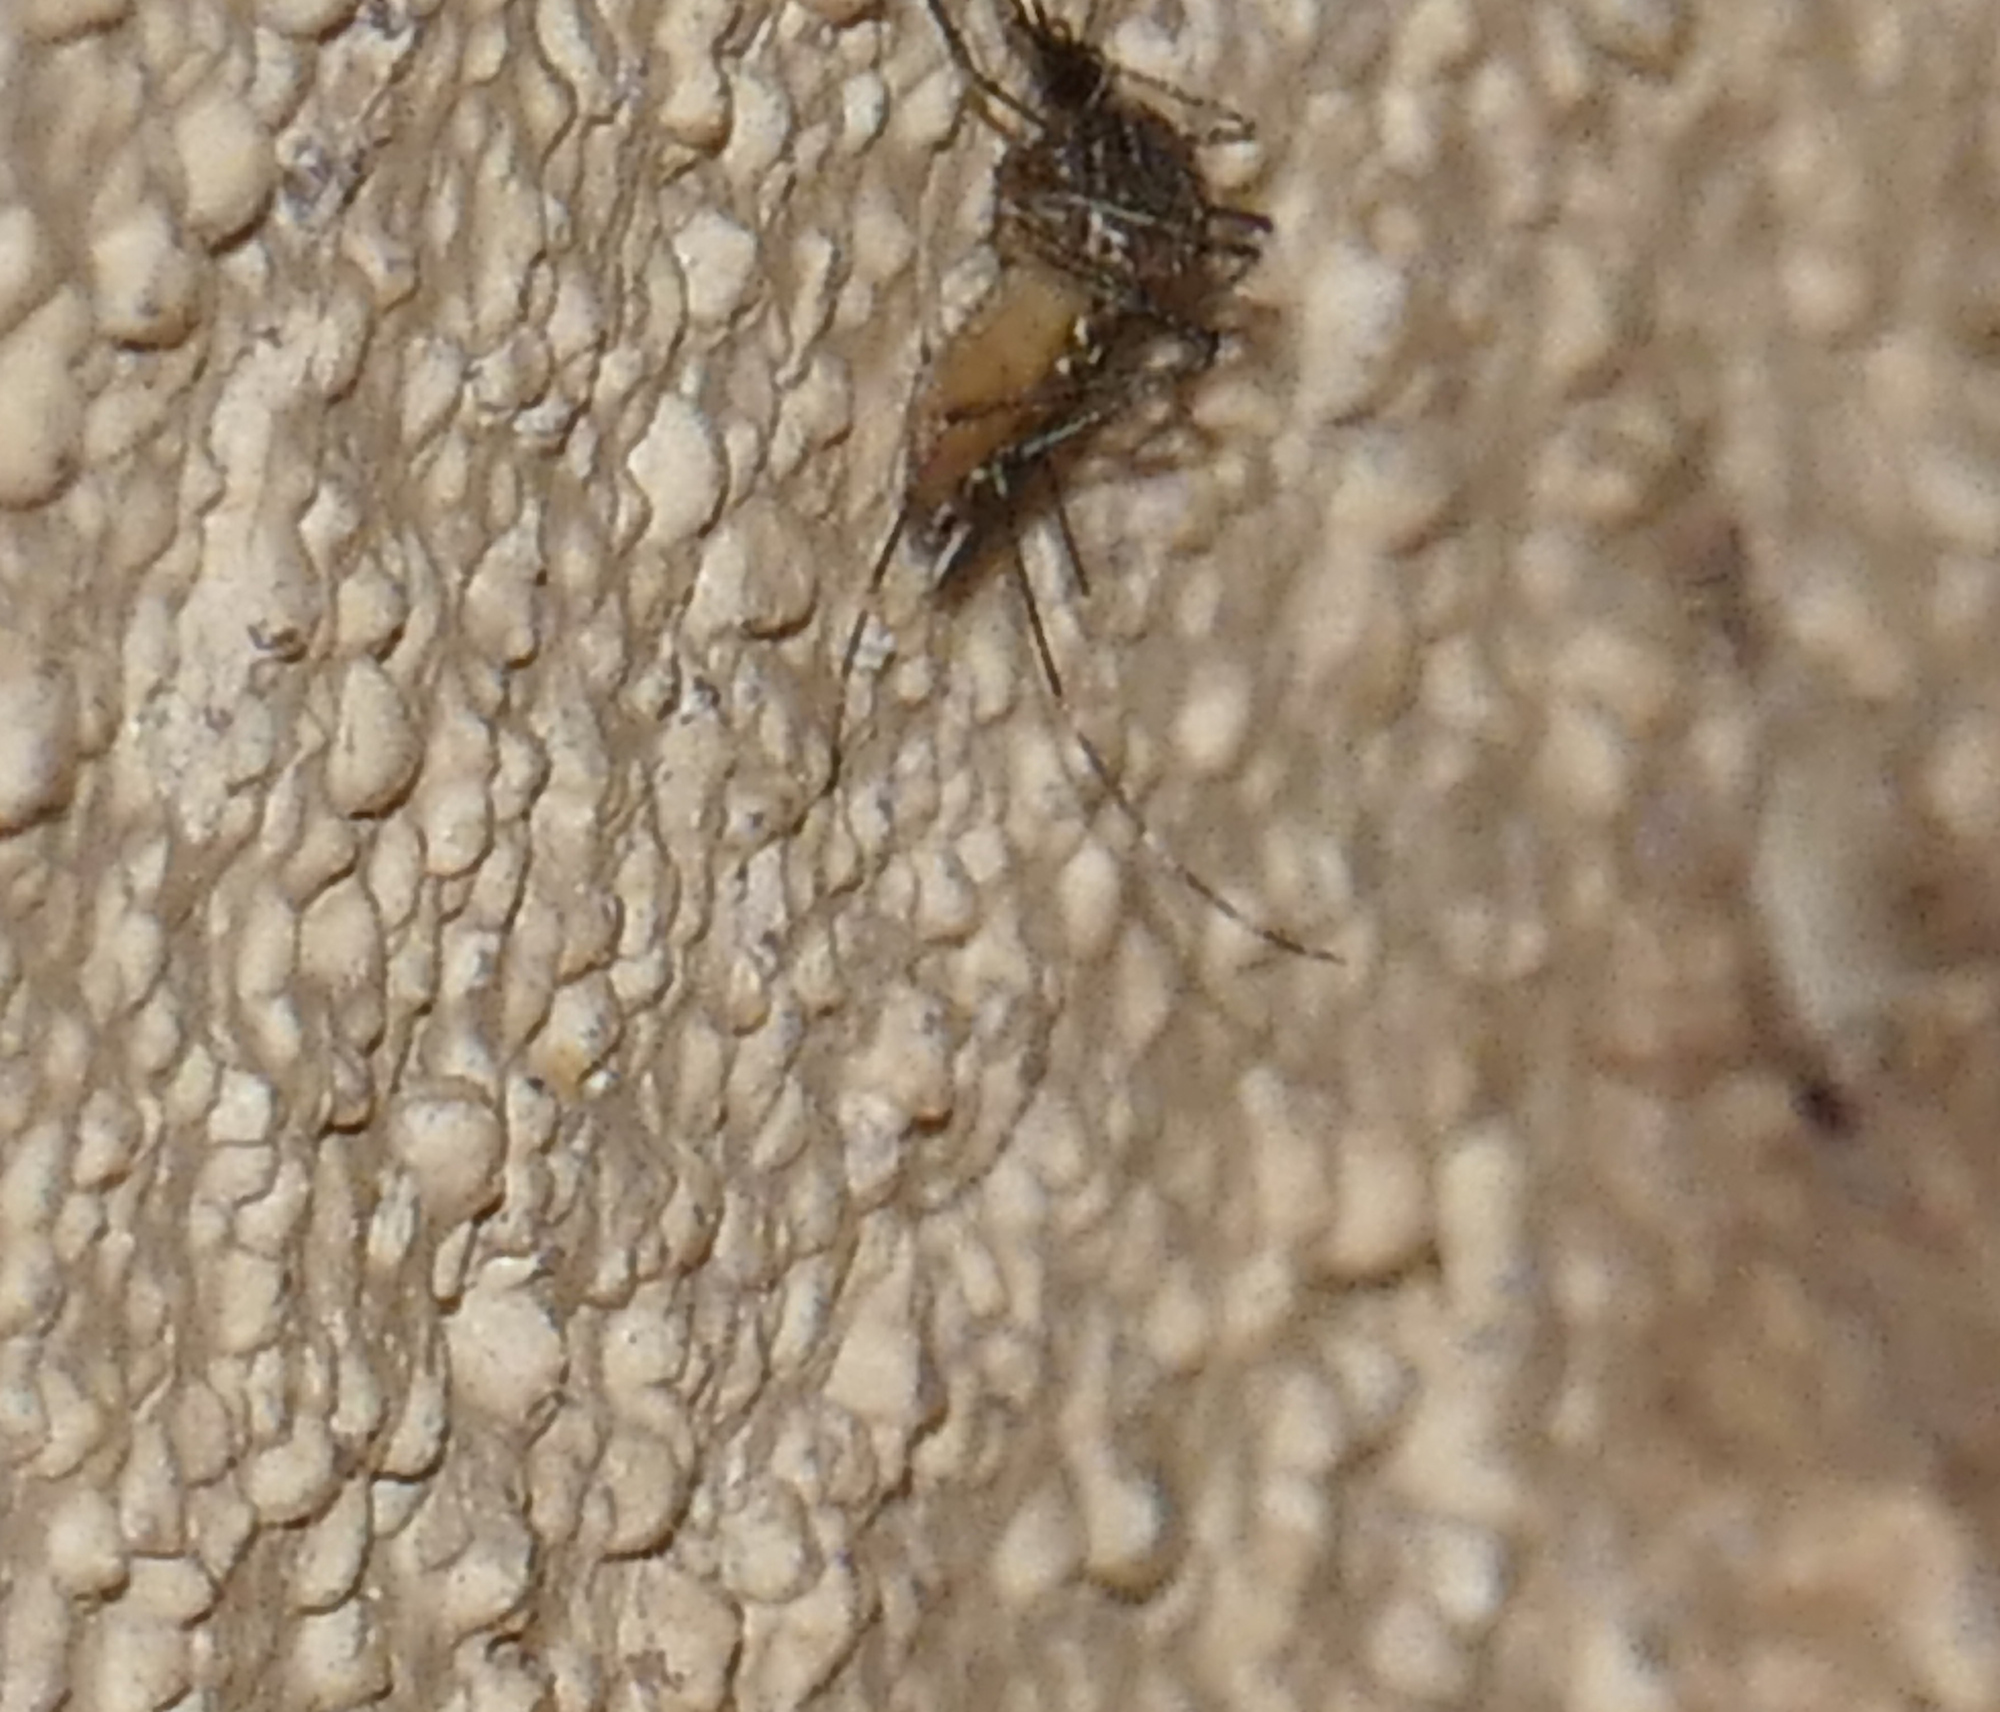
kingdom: Animalia
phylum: Arthropoda
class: Insecta
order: Diptera
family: Culicidae
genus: Culex
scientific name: Culex tarsalis
